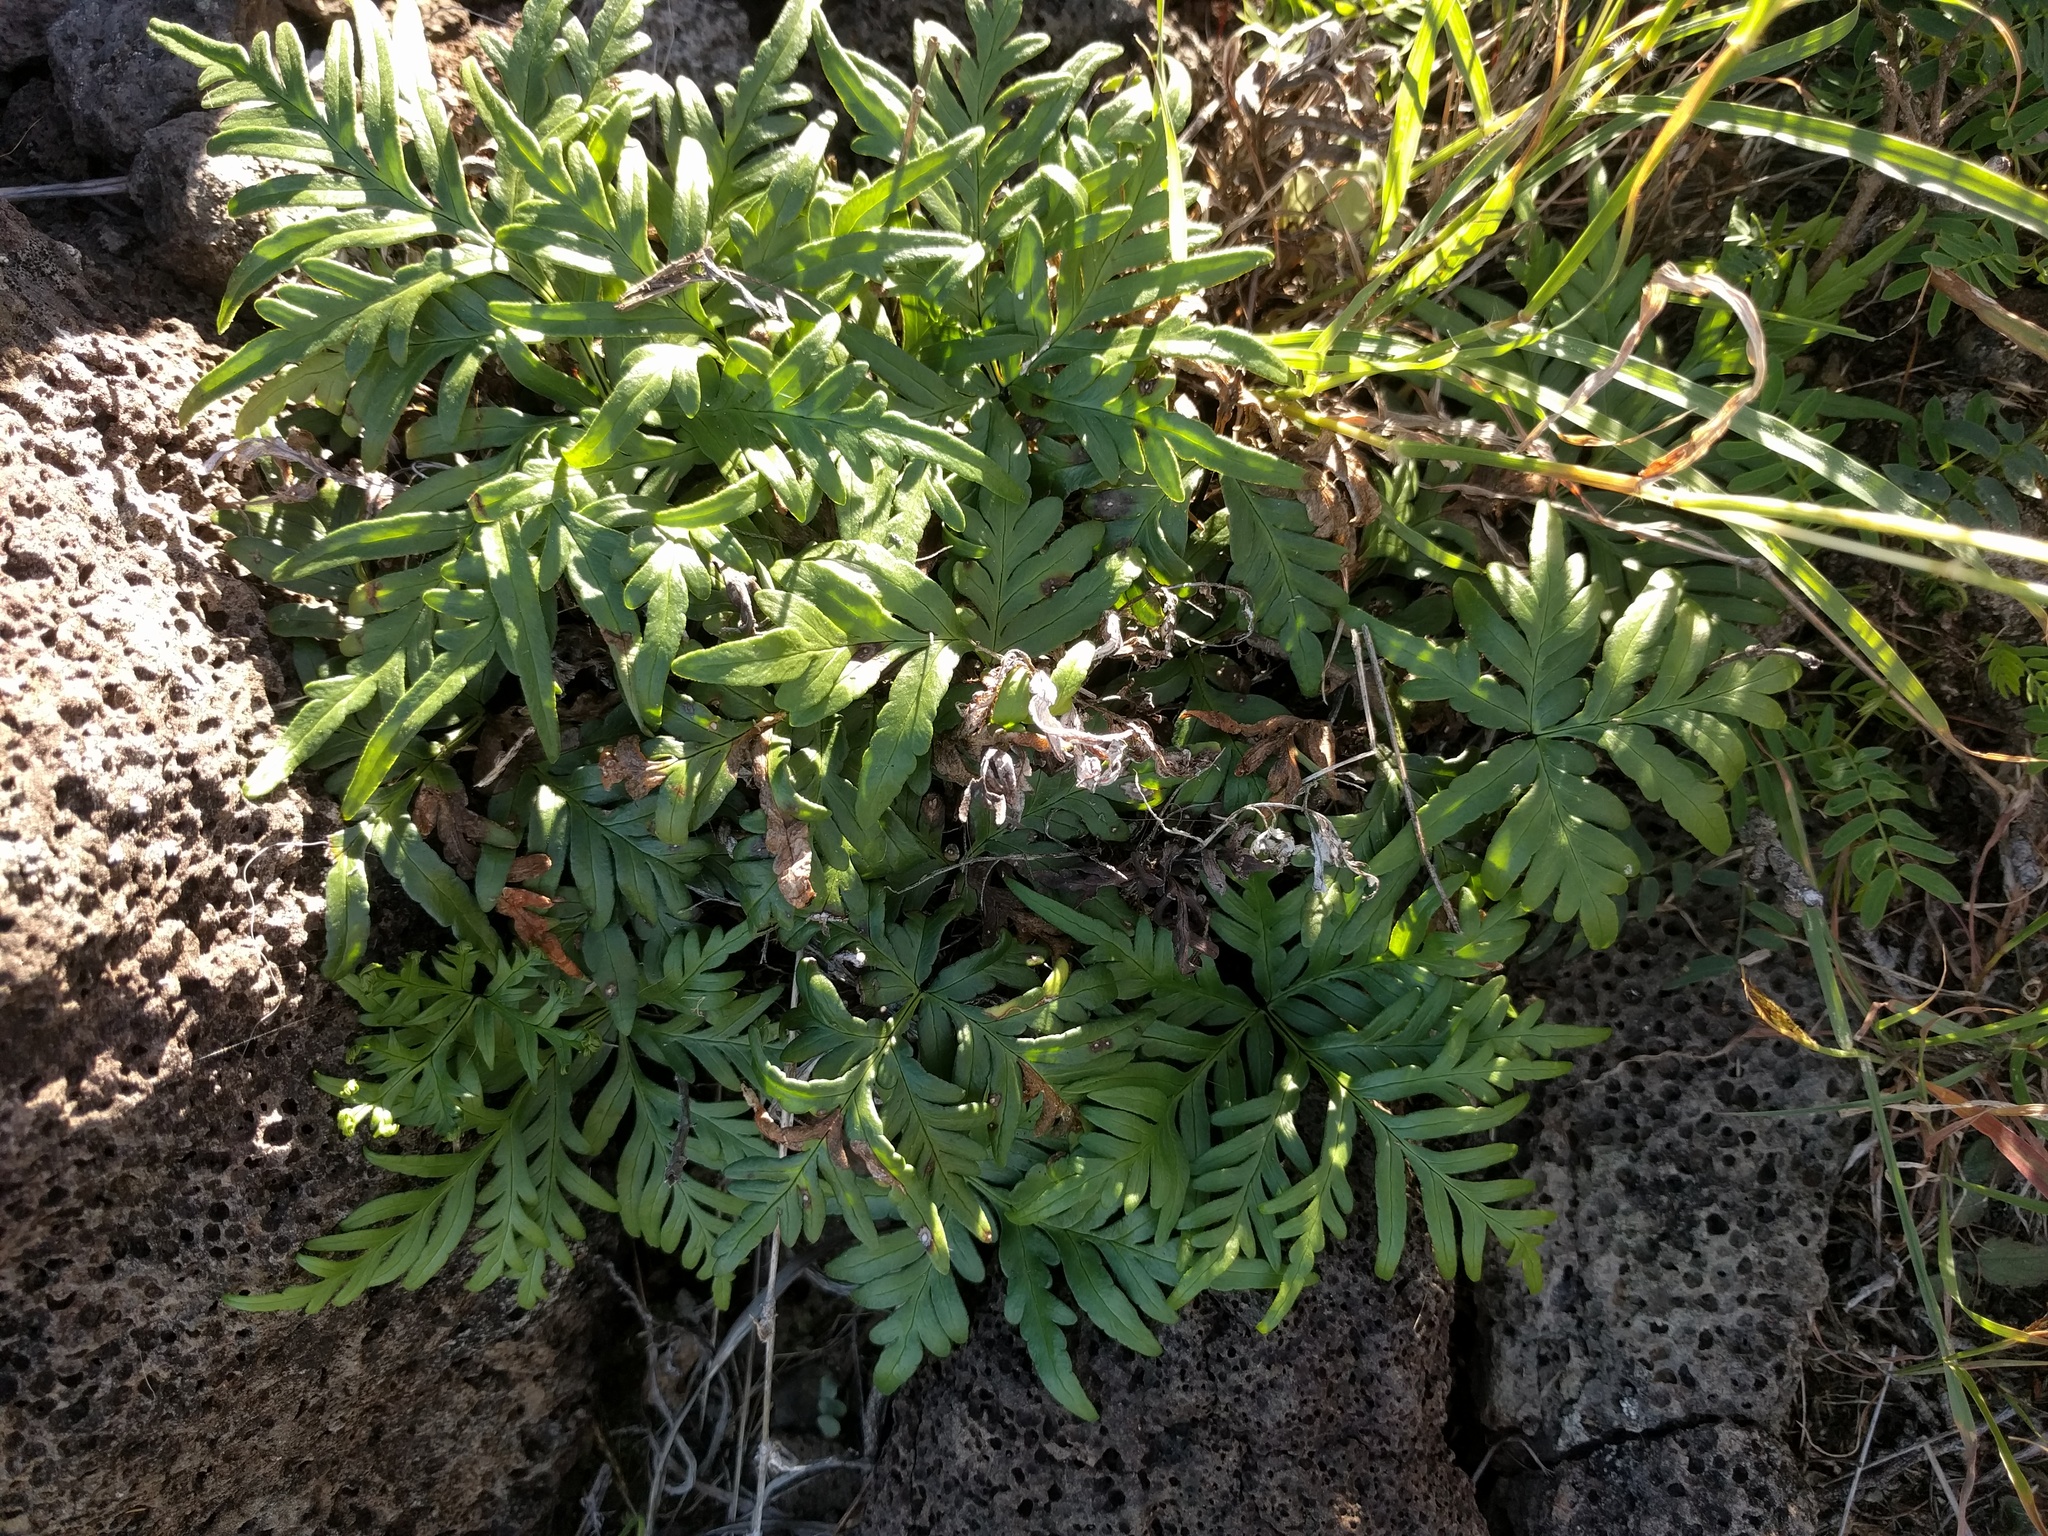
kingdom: Plantae
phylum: Tracheophyta
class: Polypodiopsida
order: Polypodiales
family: Pteridaceae
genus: Doryopteris
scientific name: Doryopteris decipiens
